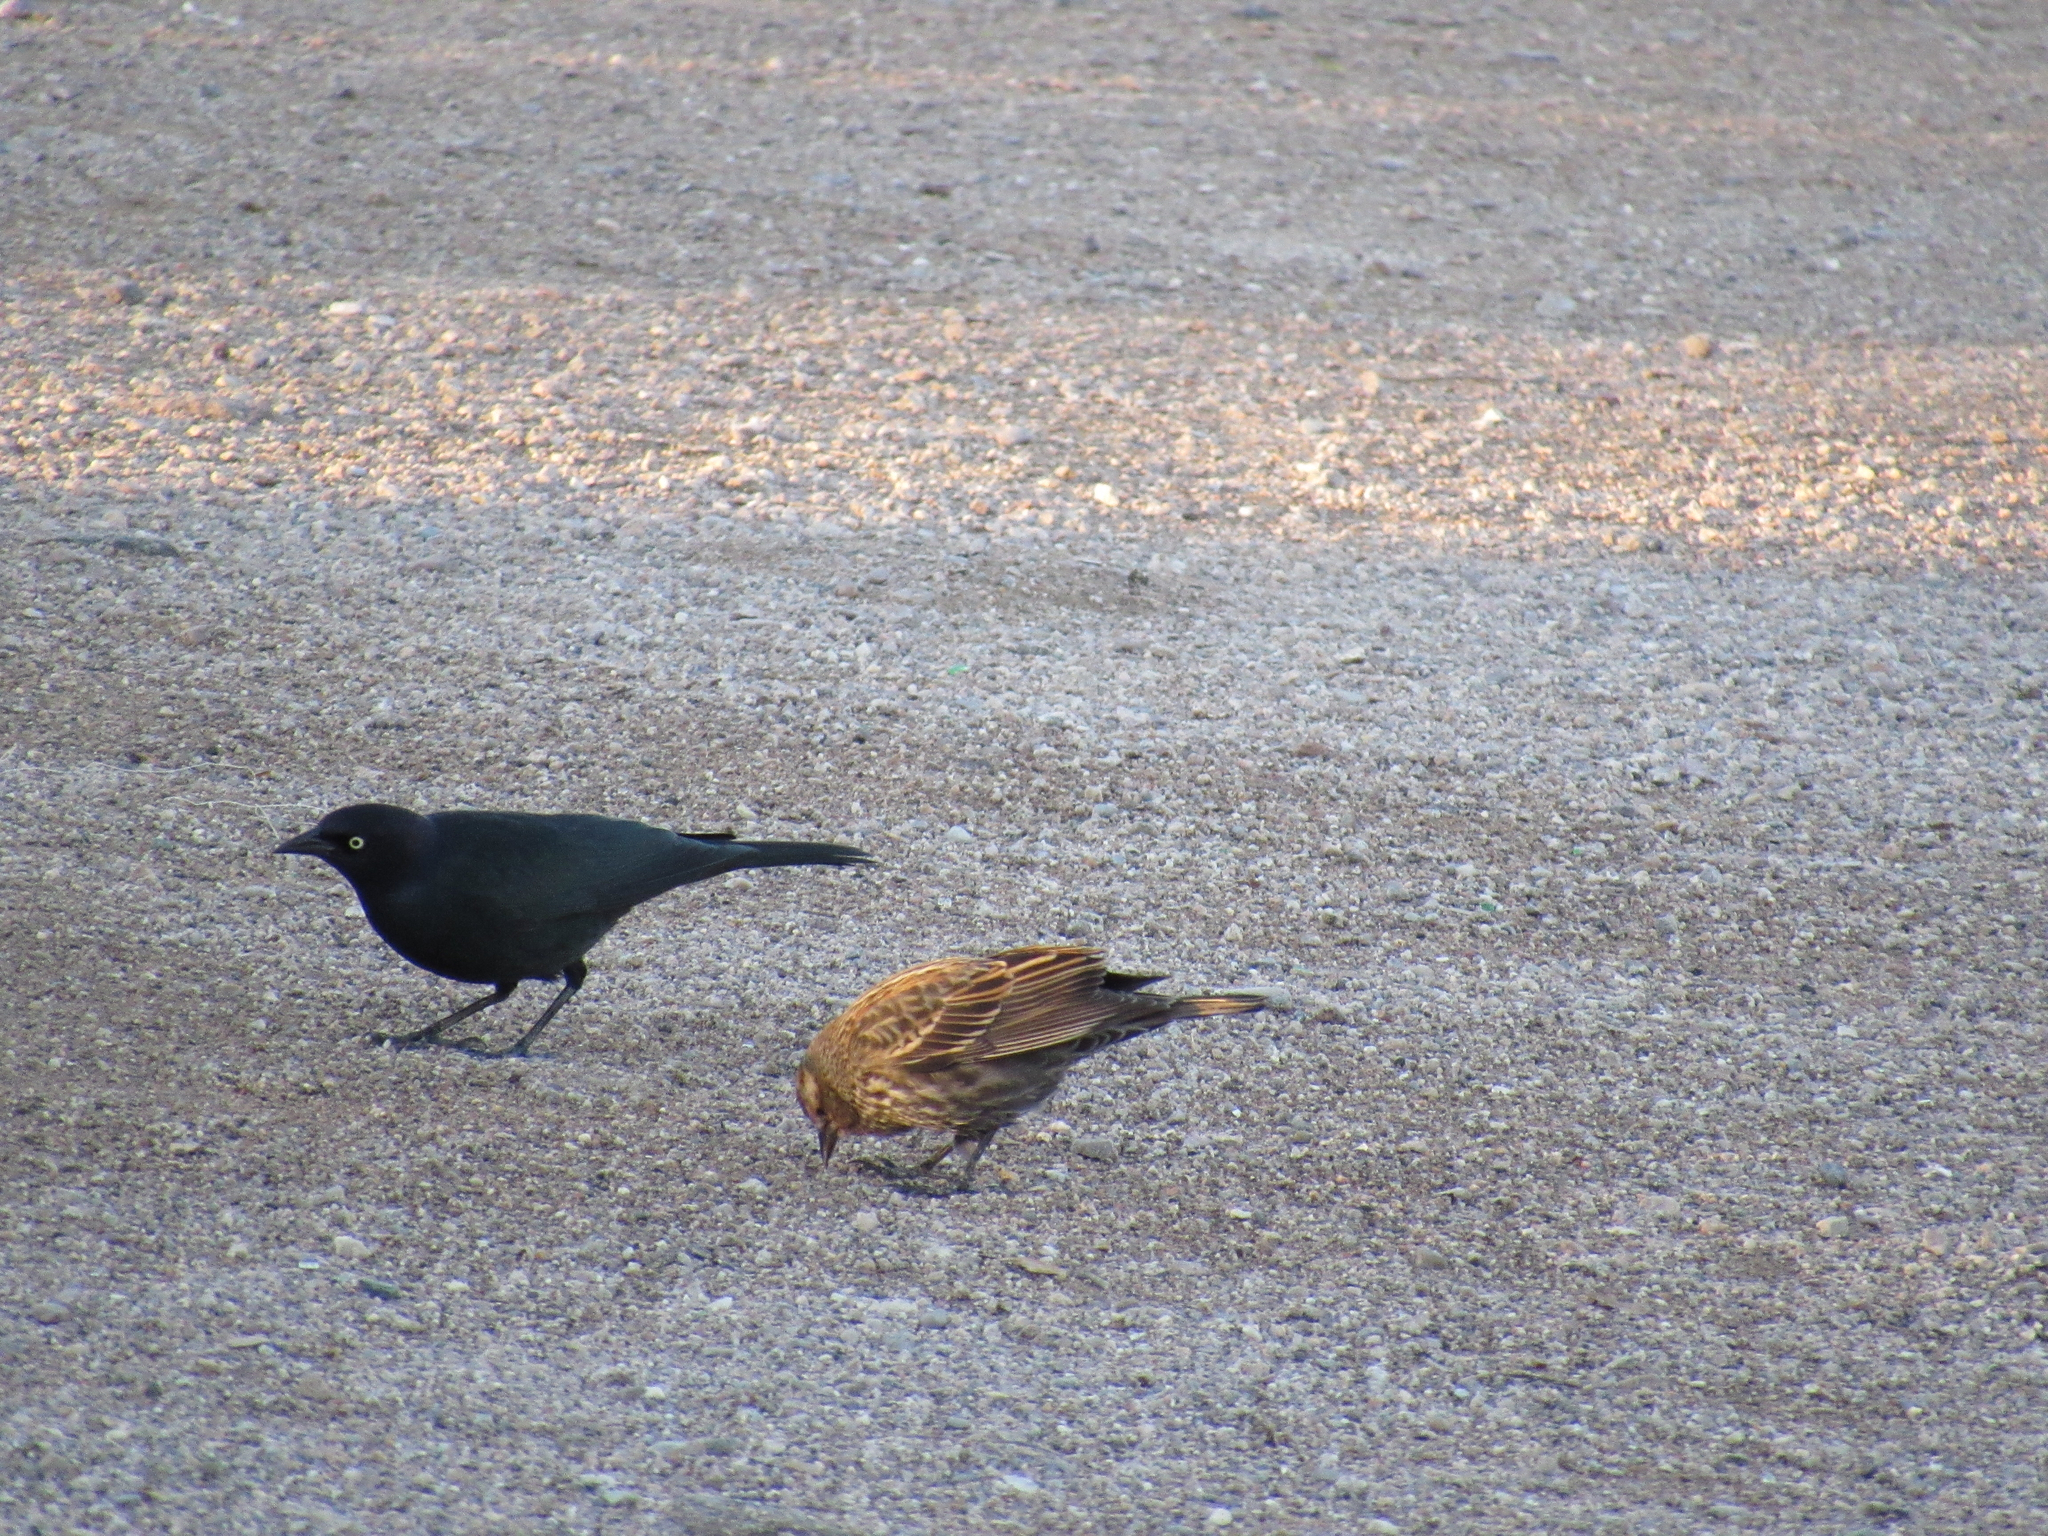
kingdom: Animalia
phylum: Chordata
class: Aves
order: Passeriformes
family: Icteridae
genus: Euphagus
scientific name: Euphagus cyanocephalus
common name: Brewer's blackbird
